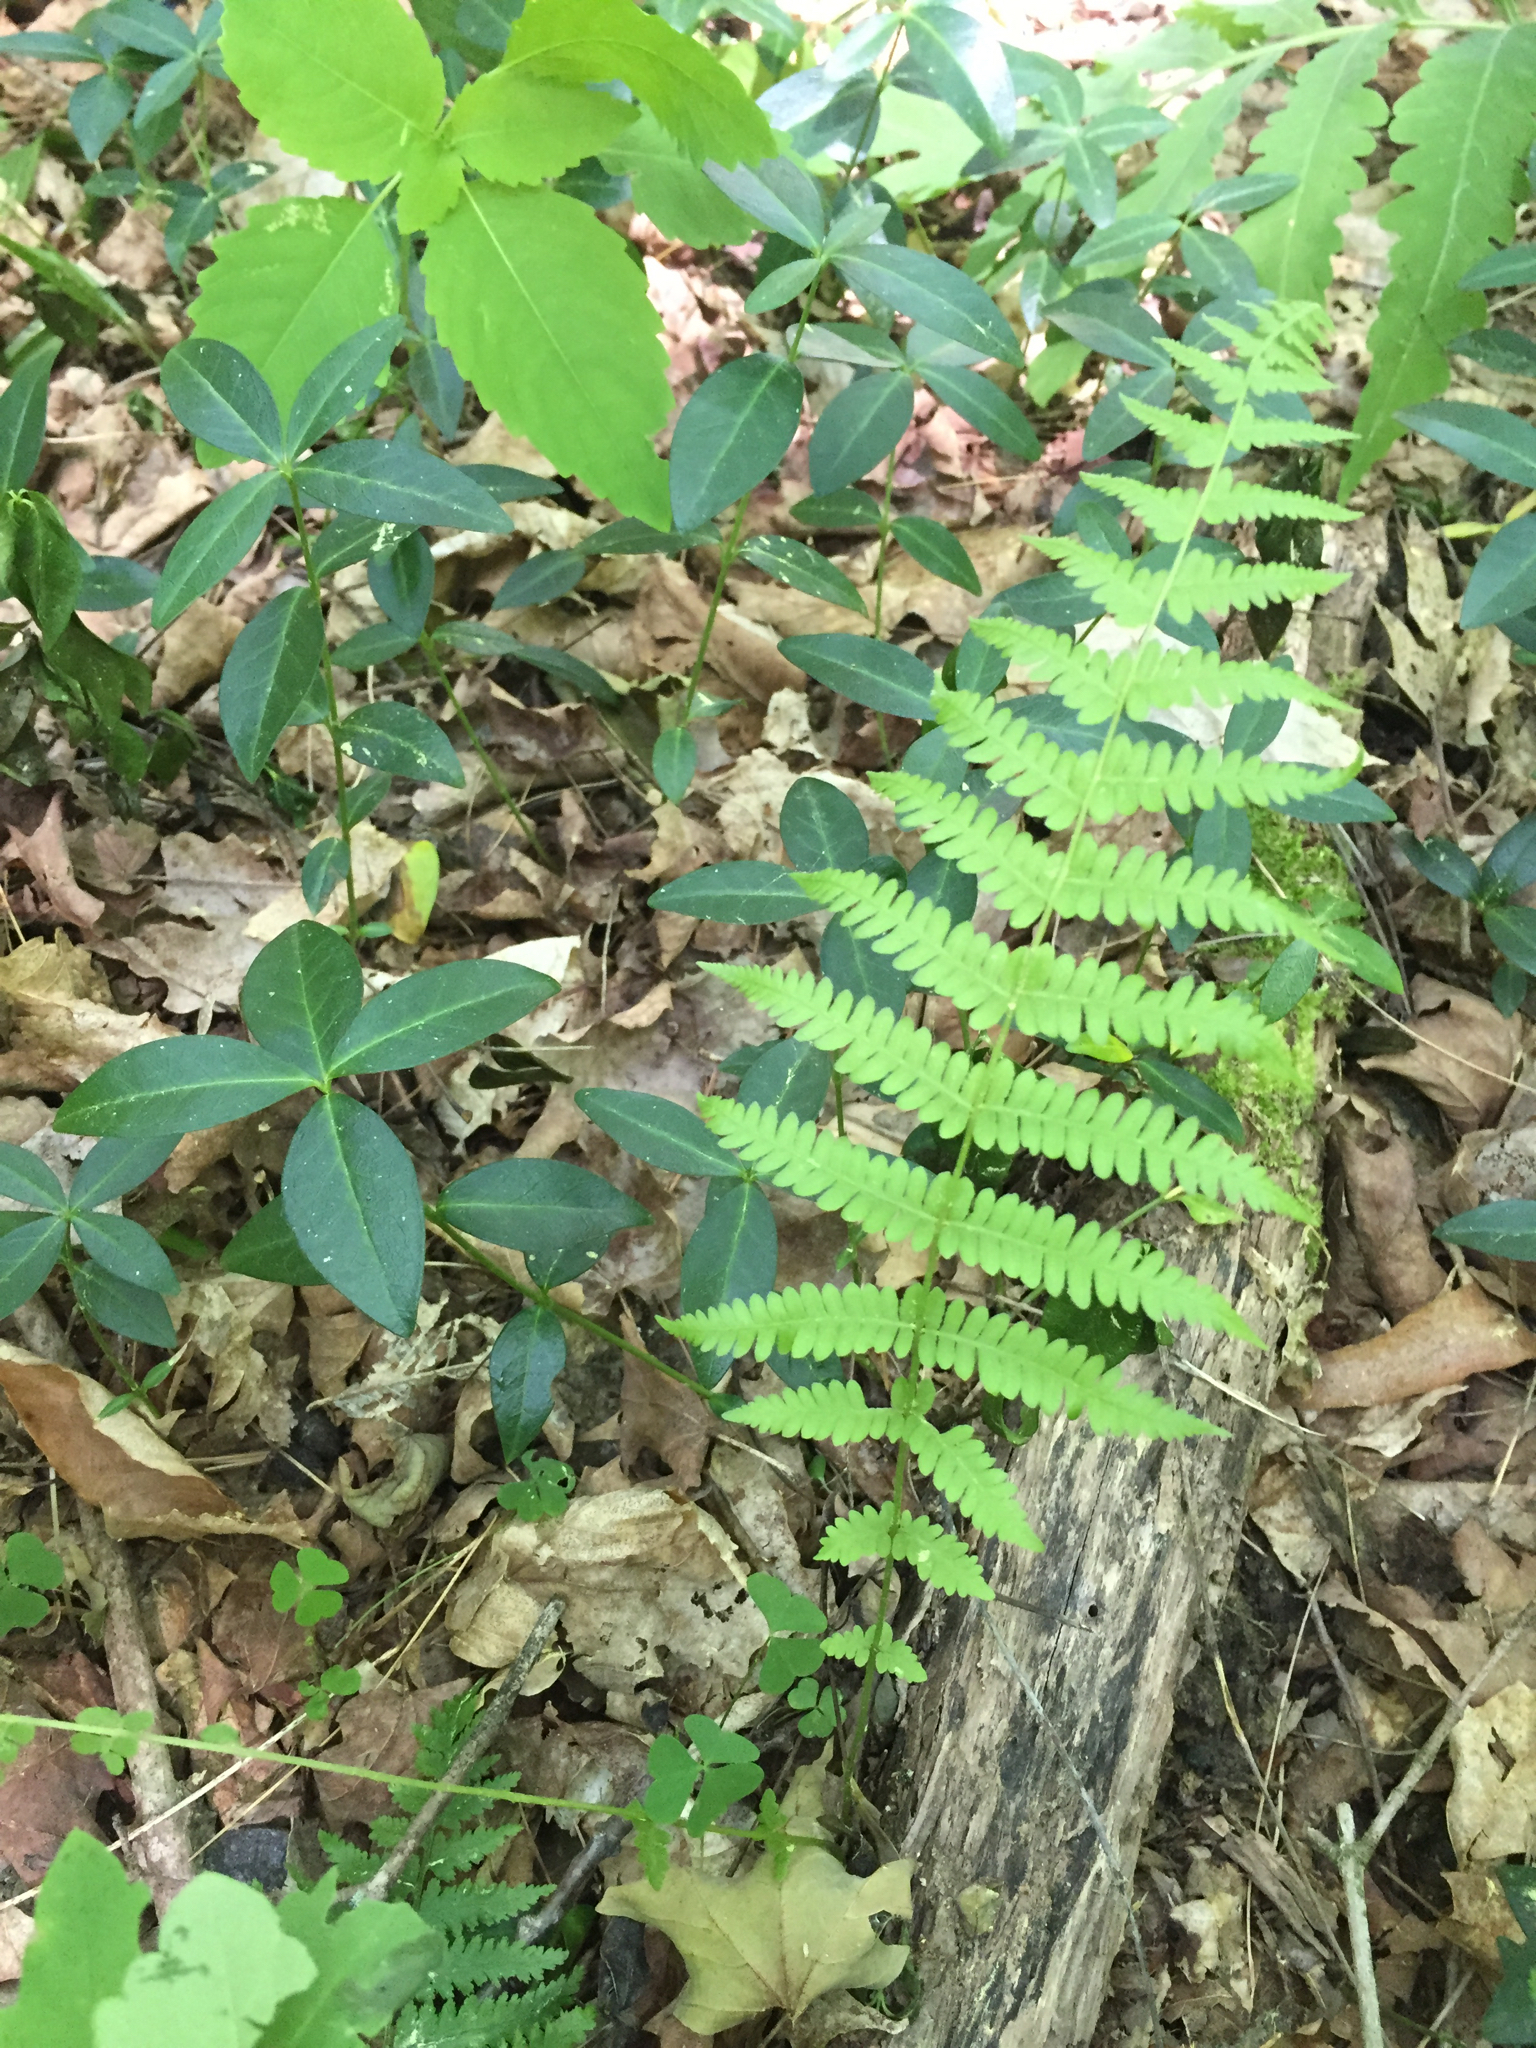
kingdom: Plantae
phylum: Tracheophyta
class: Polypodiopsida
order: Polypodiales
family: Thelypteridaceae
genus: Amauropelta
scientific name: Amauropelta noveboracensis
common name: New york fern
